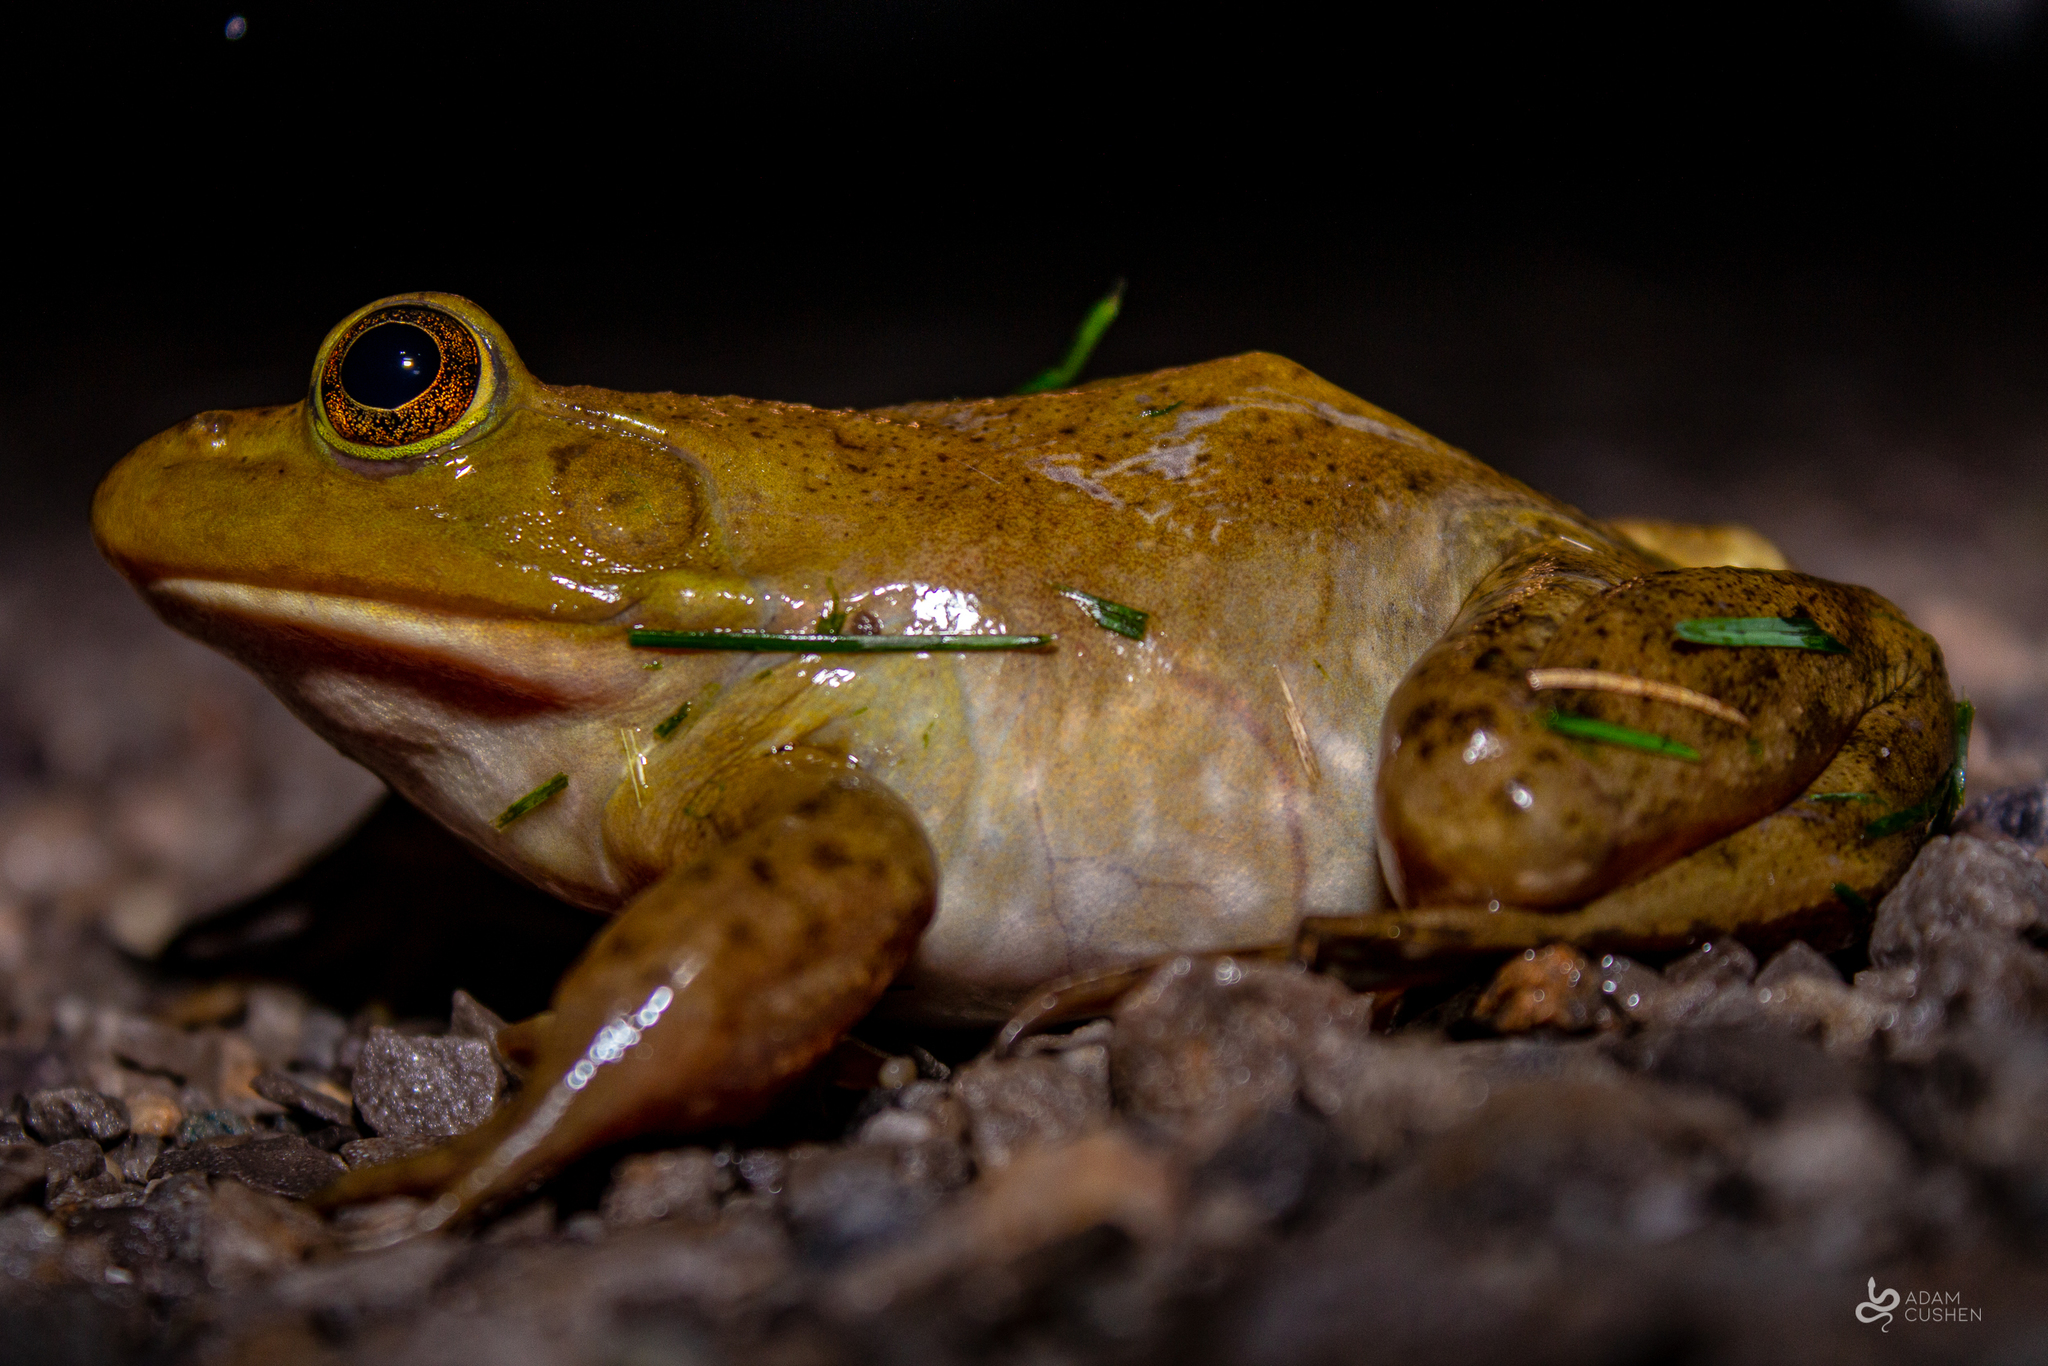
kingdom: Animalia
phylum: Chordata
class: Amphibia
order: Anura
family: Ranidae
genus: Lithobates
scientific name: Lithobates catesbeianus
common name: American bullfrog
